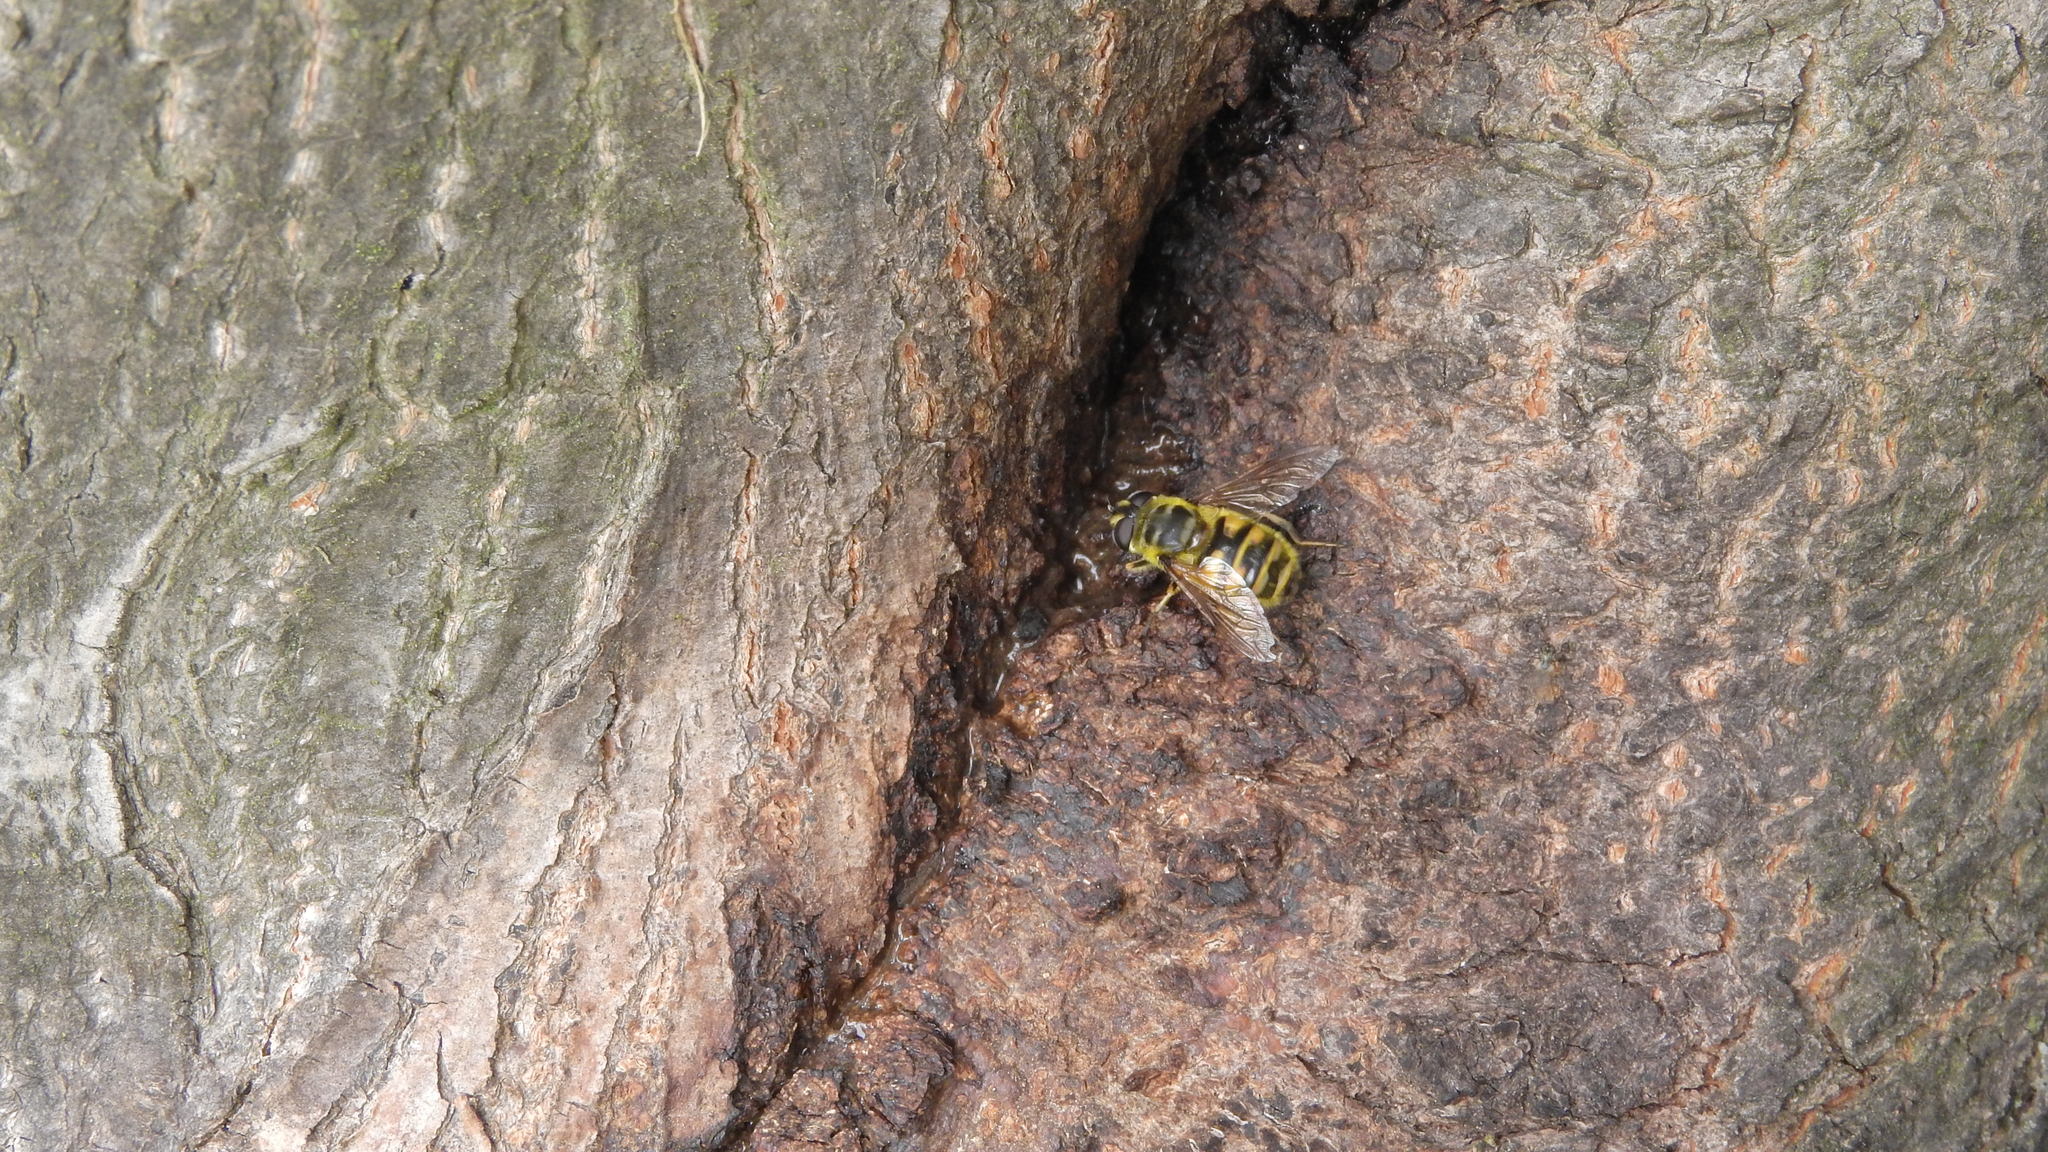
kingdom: Animalia
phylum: Arthropoda
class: Insecta
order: Diptera
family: Syrphidae
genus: Myathropa
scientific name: Myathropa florea
